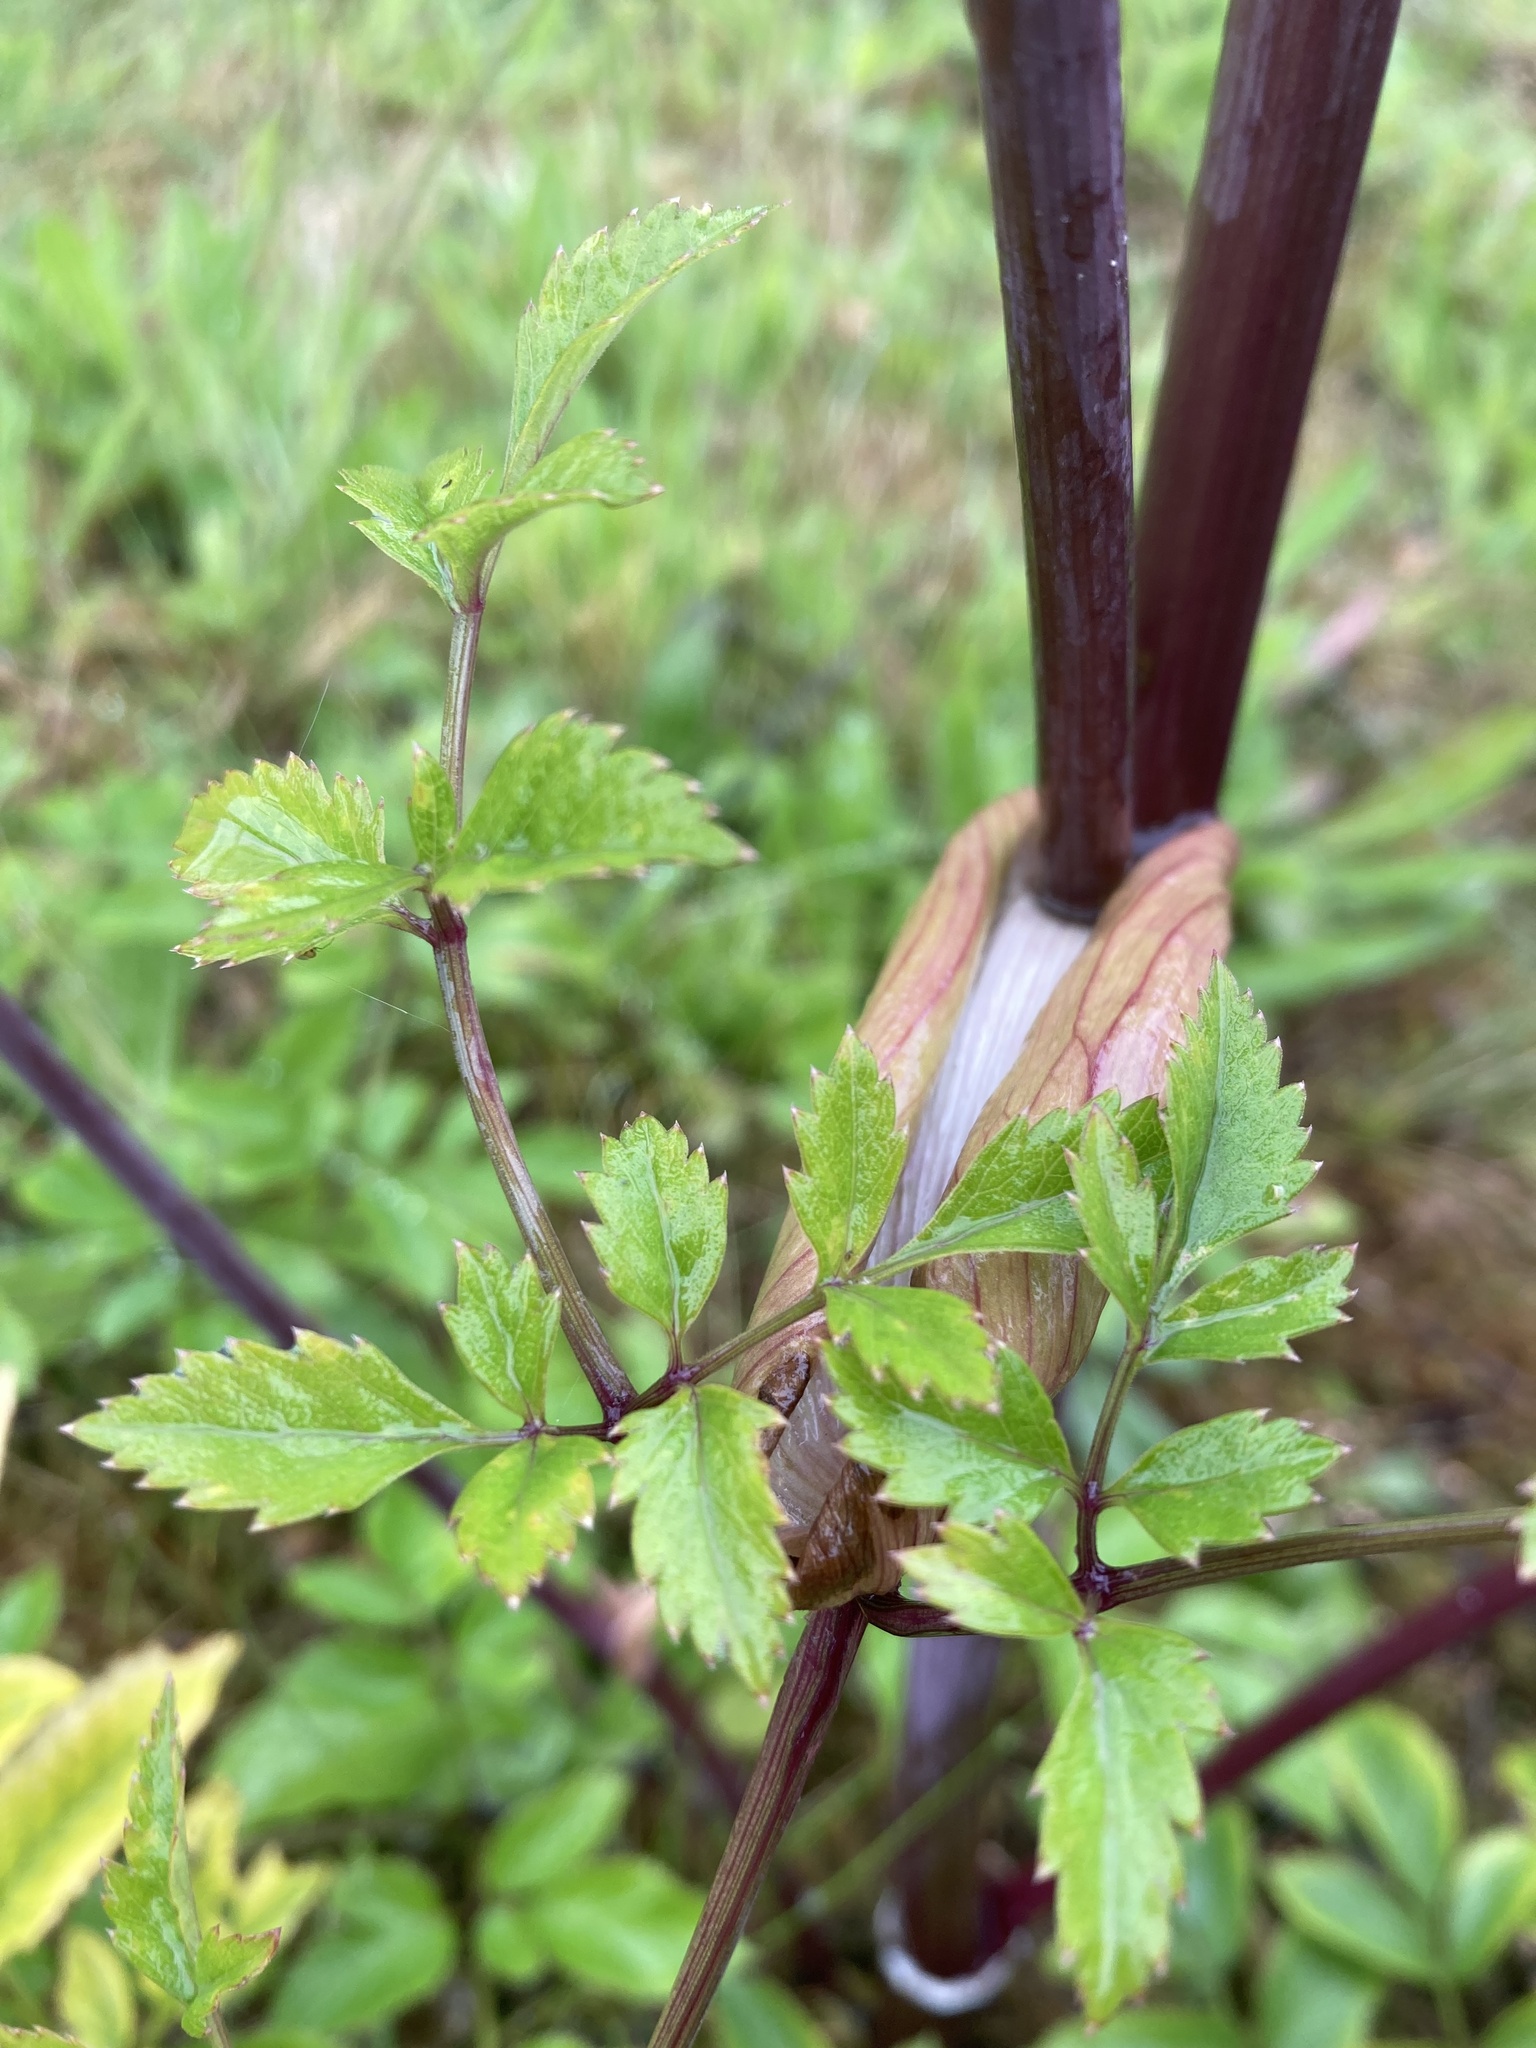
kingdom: Plantae
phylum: Tracheophyta
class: Magnoliopsida
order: Apiales
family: Apiaceae
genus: Angelica
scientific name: Angelica sylvestris
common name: Wild angelica
